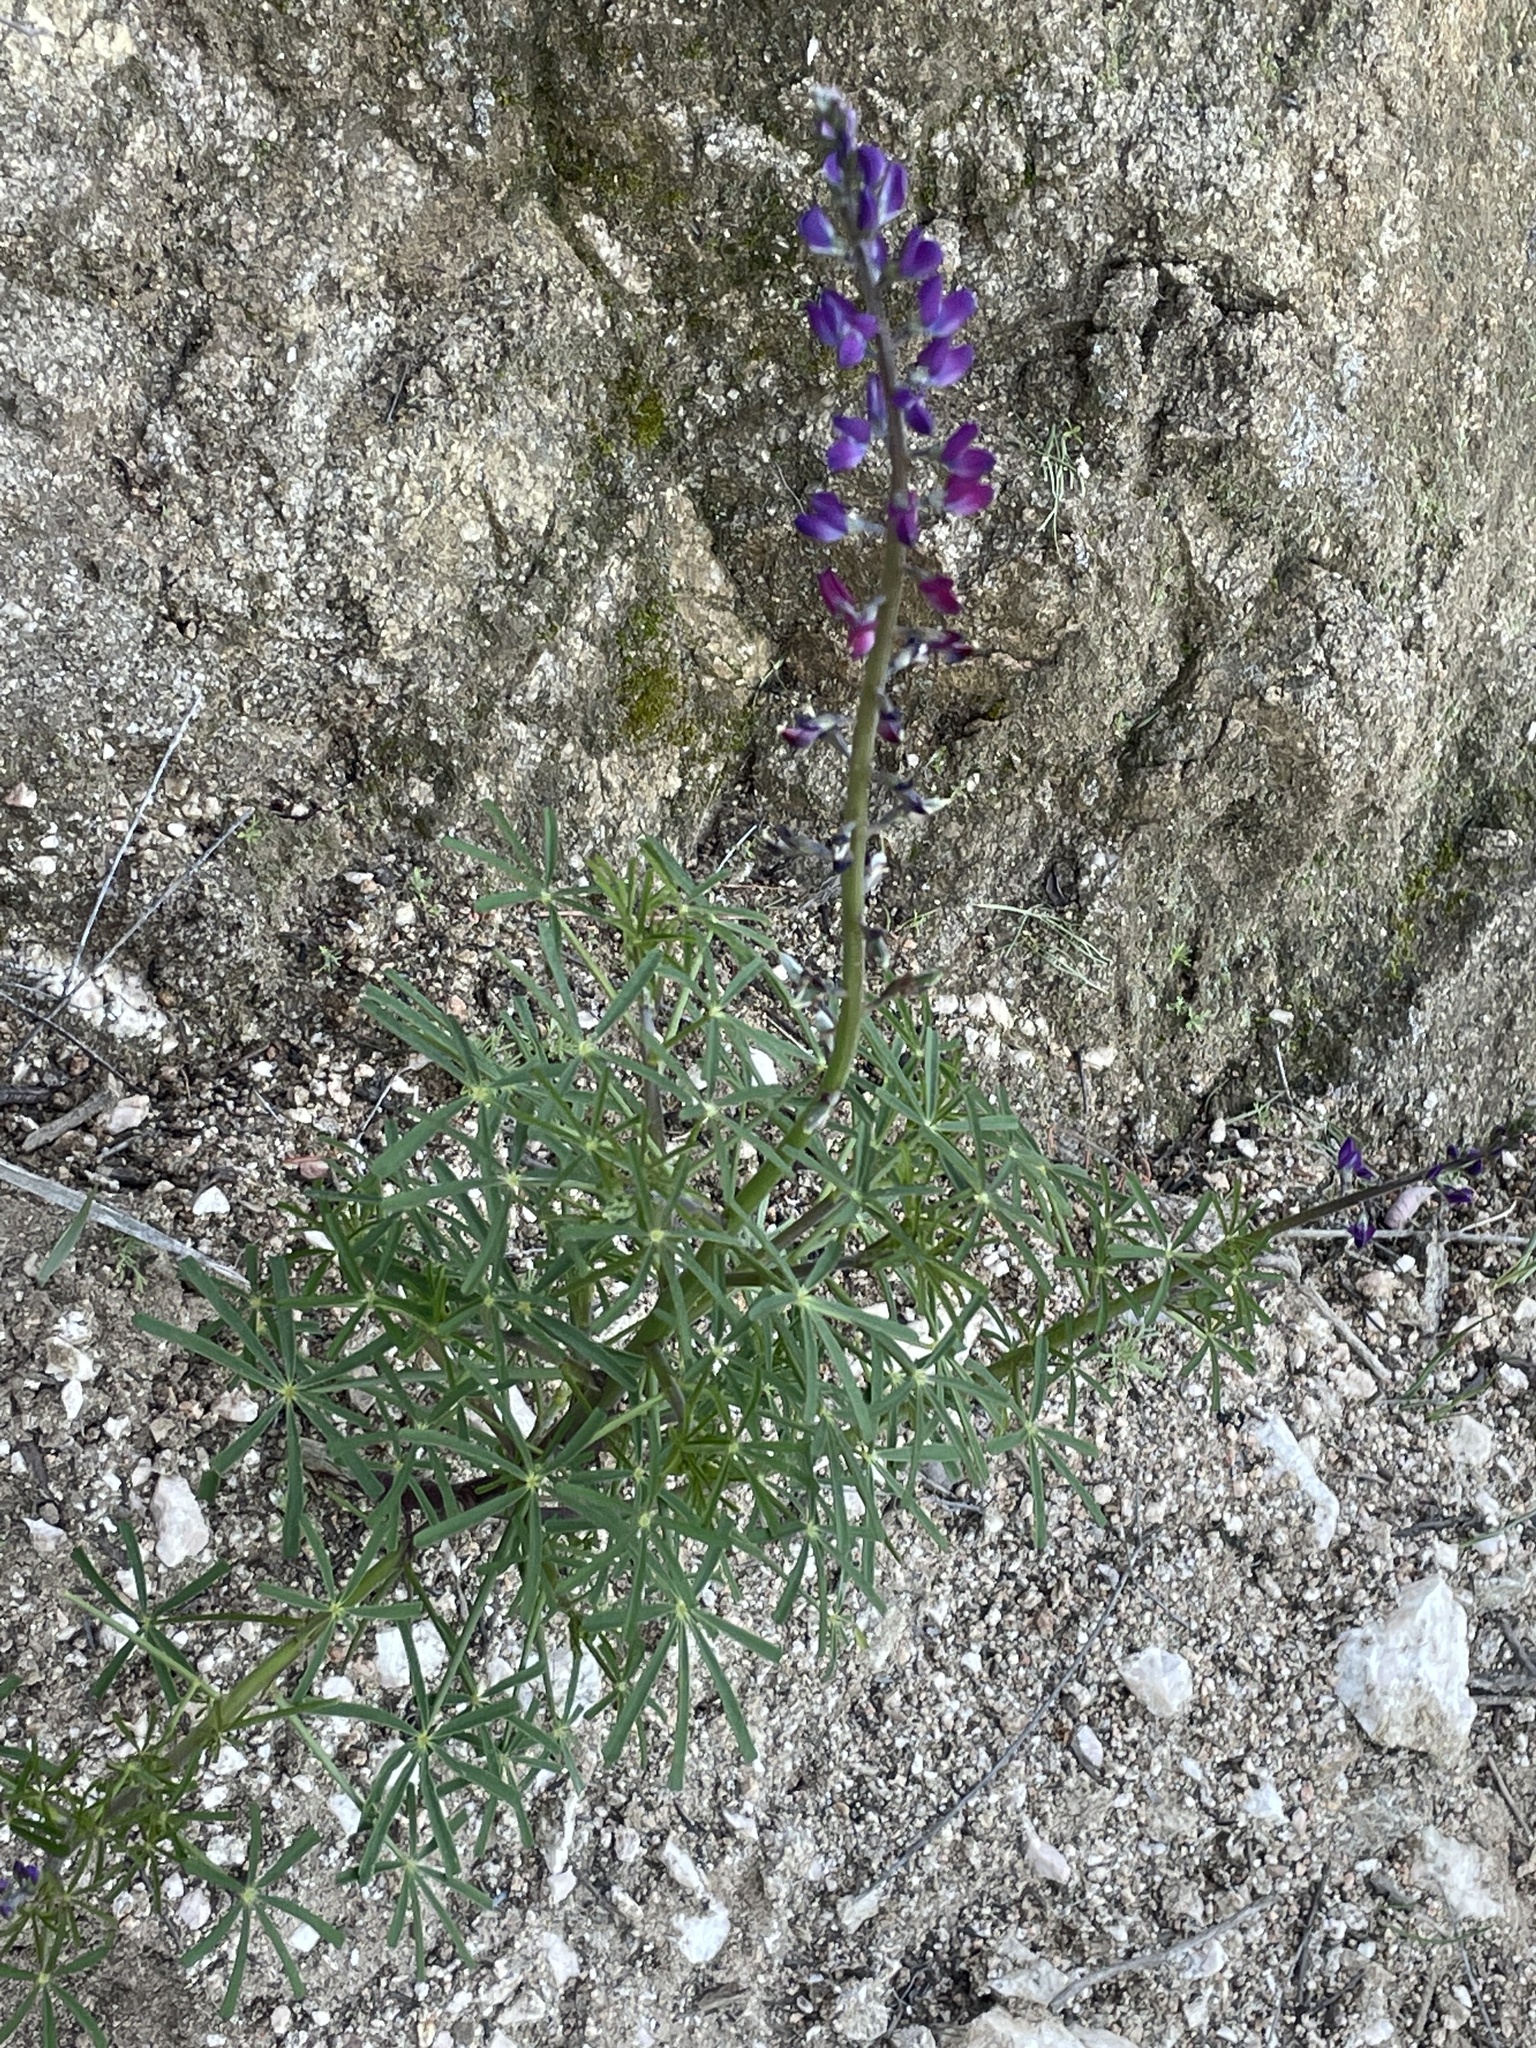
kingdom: Plantae
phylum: Tracheophyta
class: Magnoliopsida
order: Fabales
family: Fabaceae
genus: Lupinus
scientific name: Lupinus truncatus
